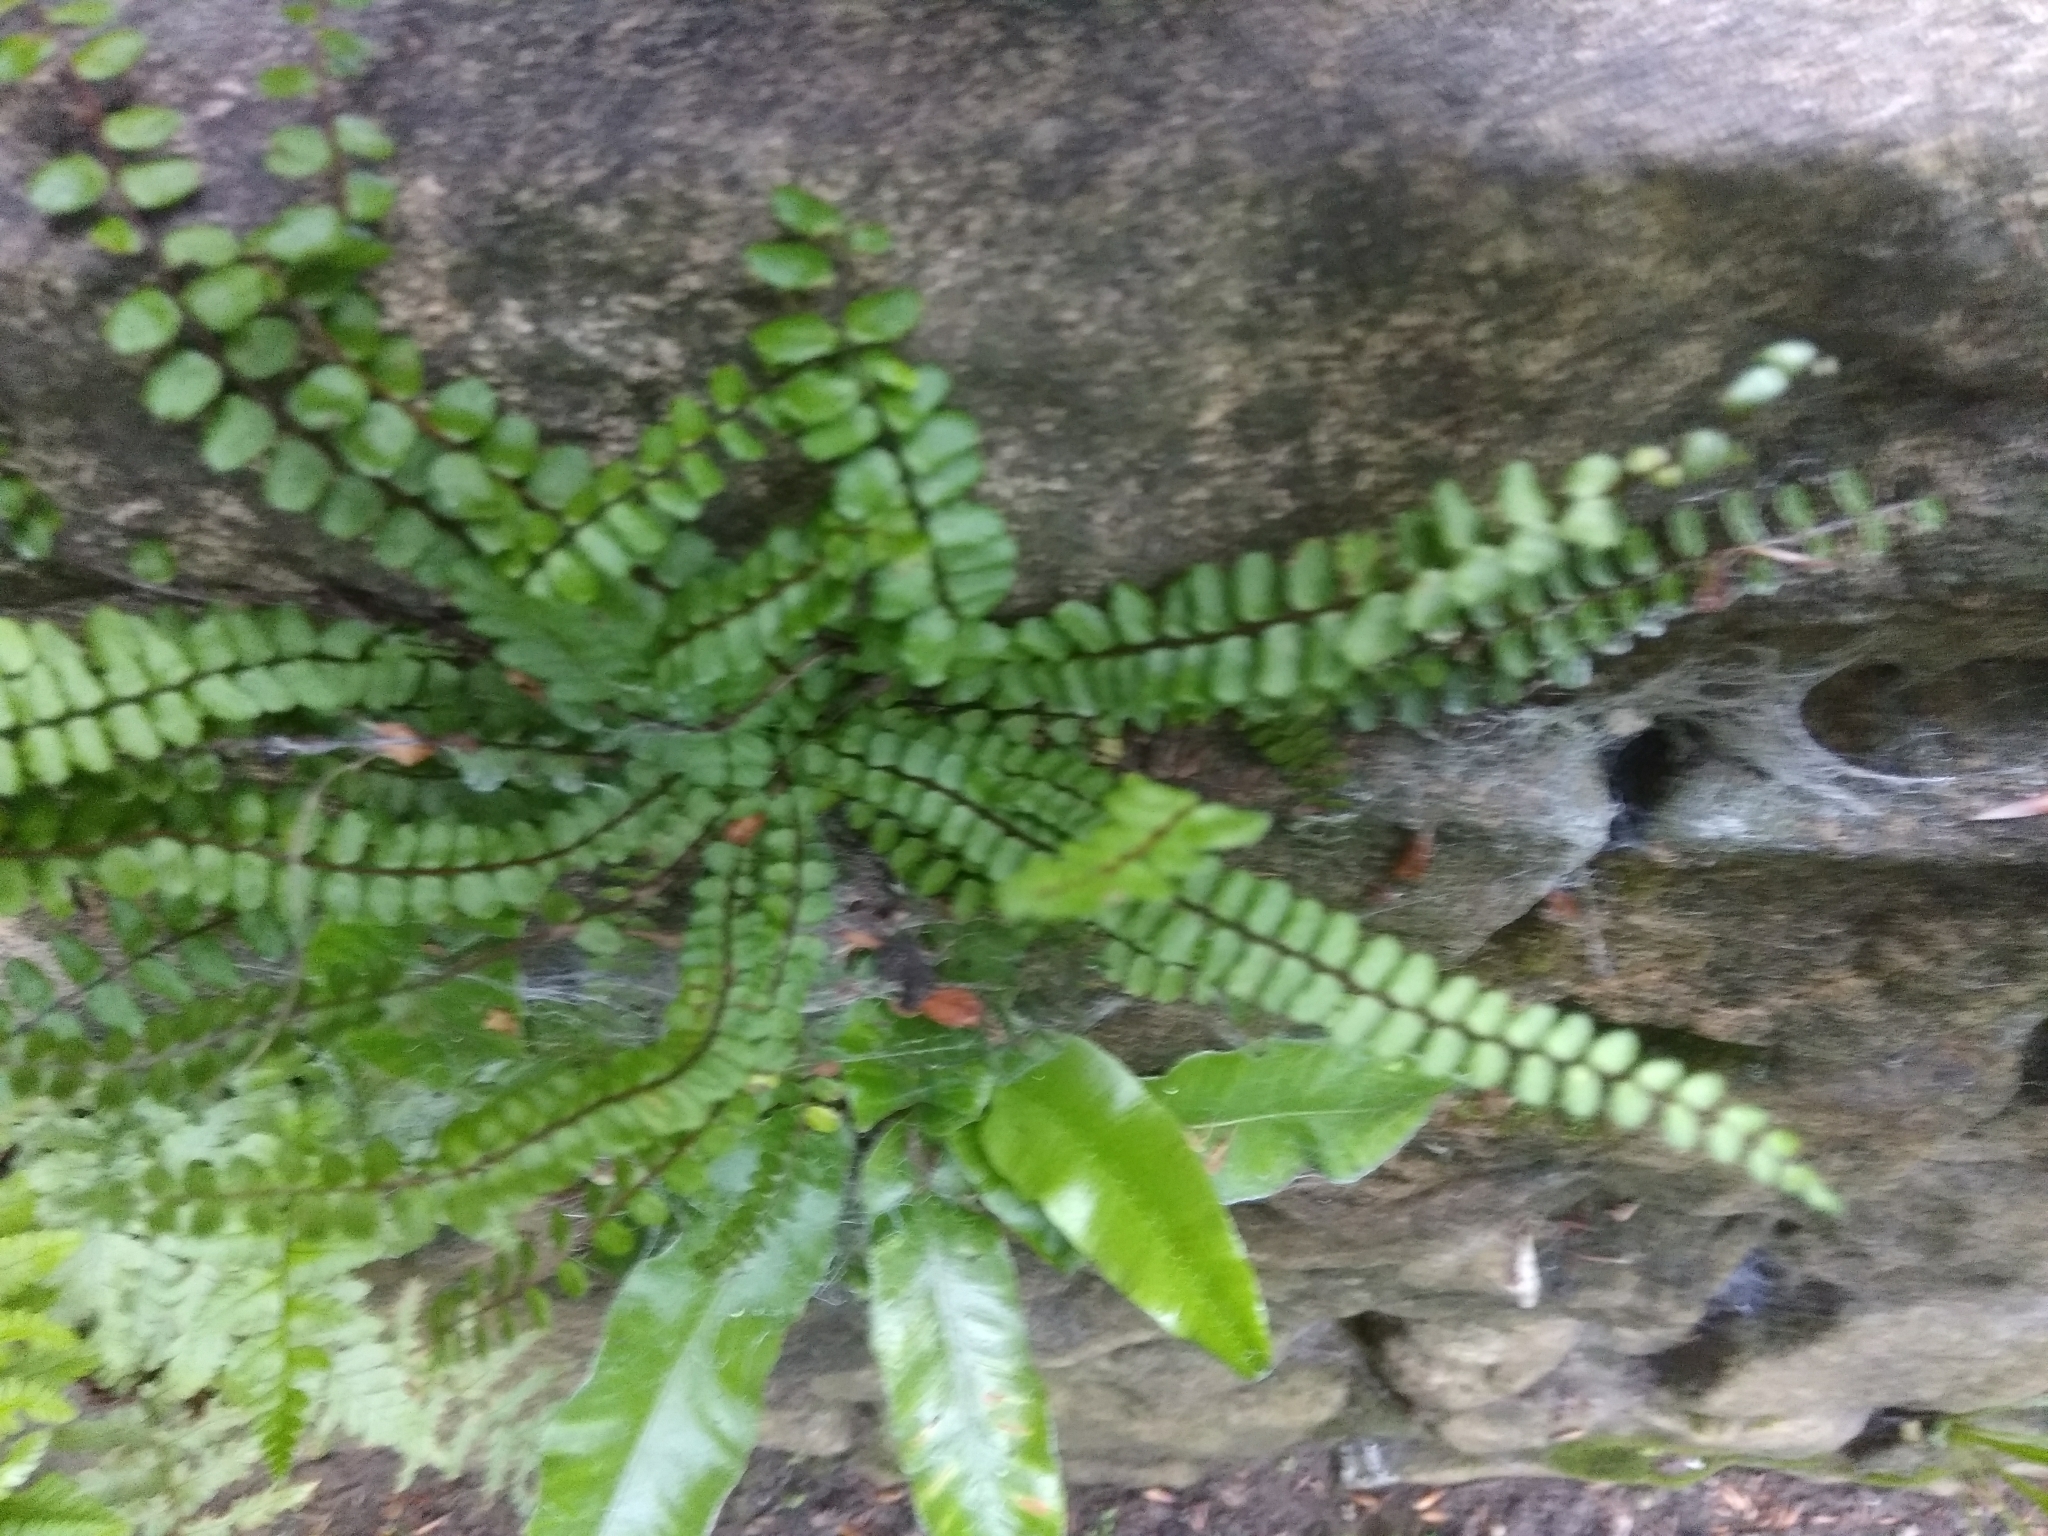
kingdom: Plantae
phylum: Tracheophyta
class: Polypodiopsida
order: Polypodiales
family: Aspleniaceae
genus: Asplenium
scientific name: Asplenium trichomanes
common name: Maidenhair spleenwort
